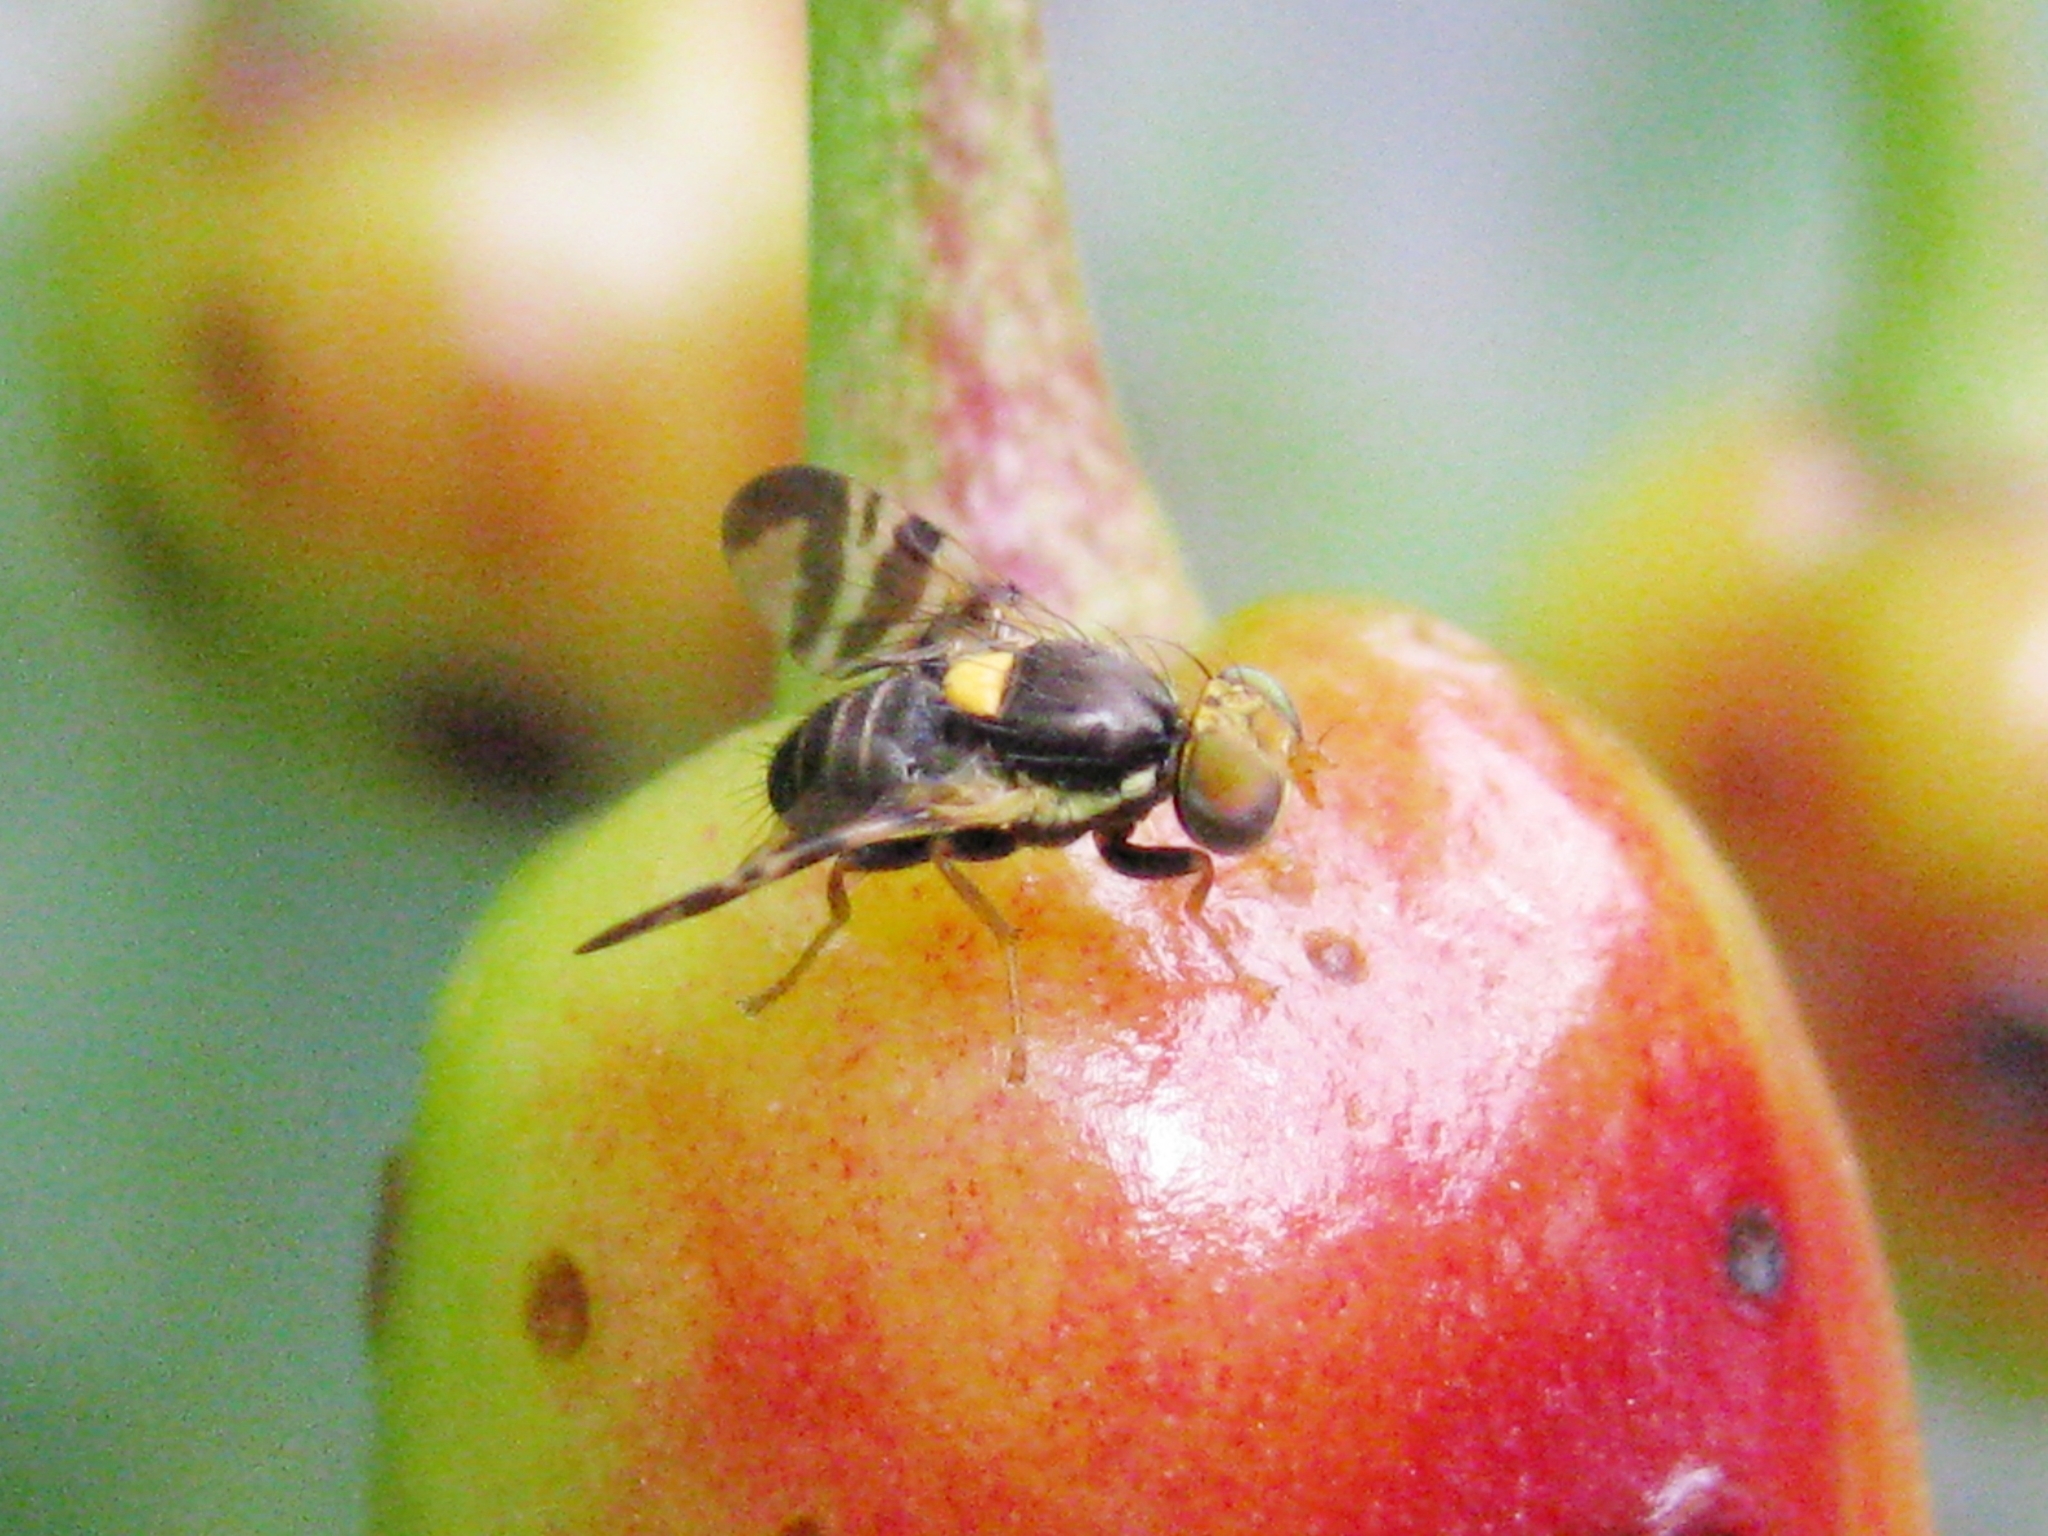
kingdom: Animalia
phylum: Arthropoda
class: Insecta
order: Diptera
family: Tephritidae
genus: Rhagoletis
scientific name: Rhagoletis cerasi
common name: European cherry fruit fly
